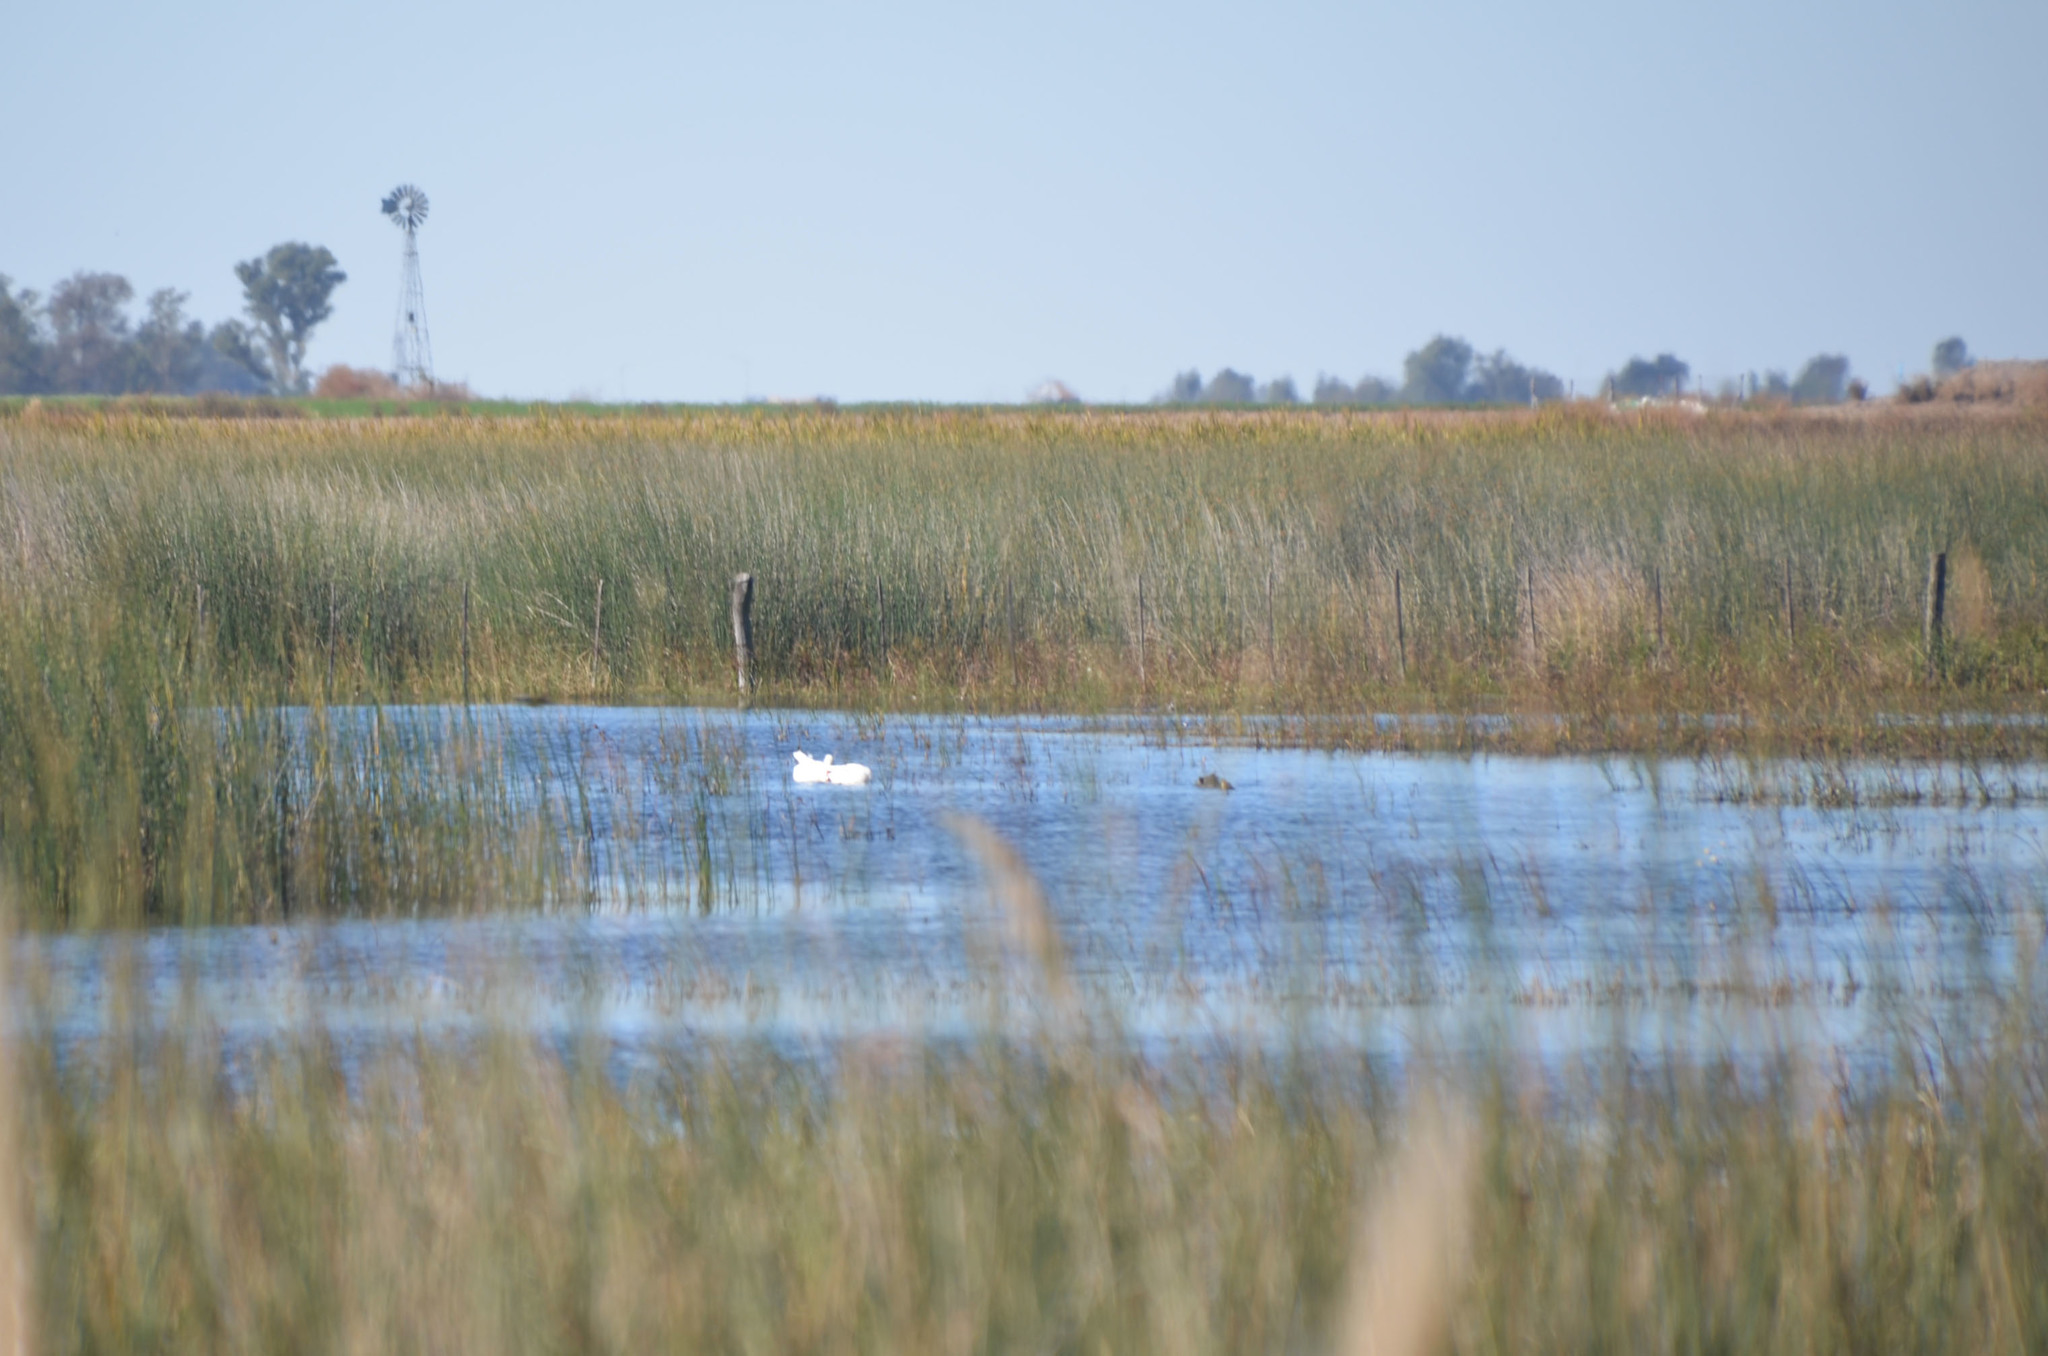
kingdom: Animalia
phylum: Chordata
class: Aves
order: Anseriformes
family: Anatidae
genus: Coscoroba
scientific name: Coscoroba coscoroba
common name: Coscoroba swan
